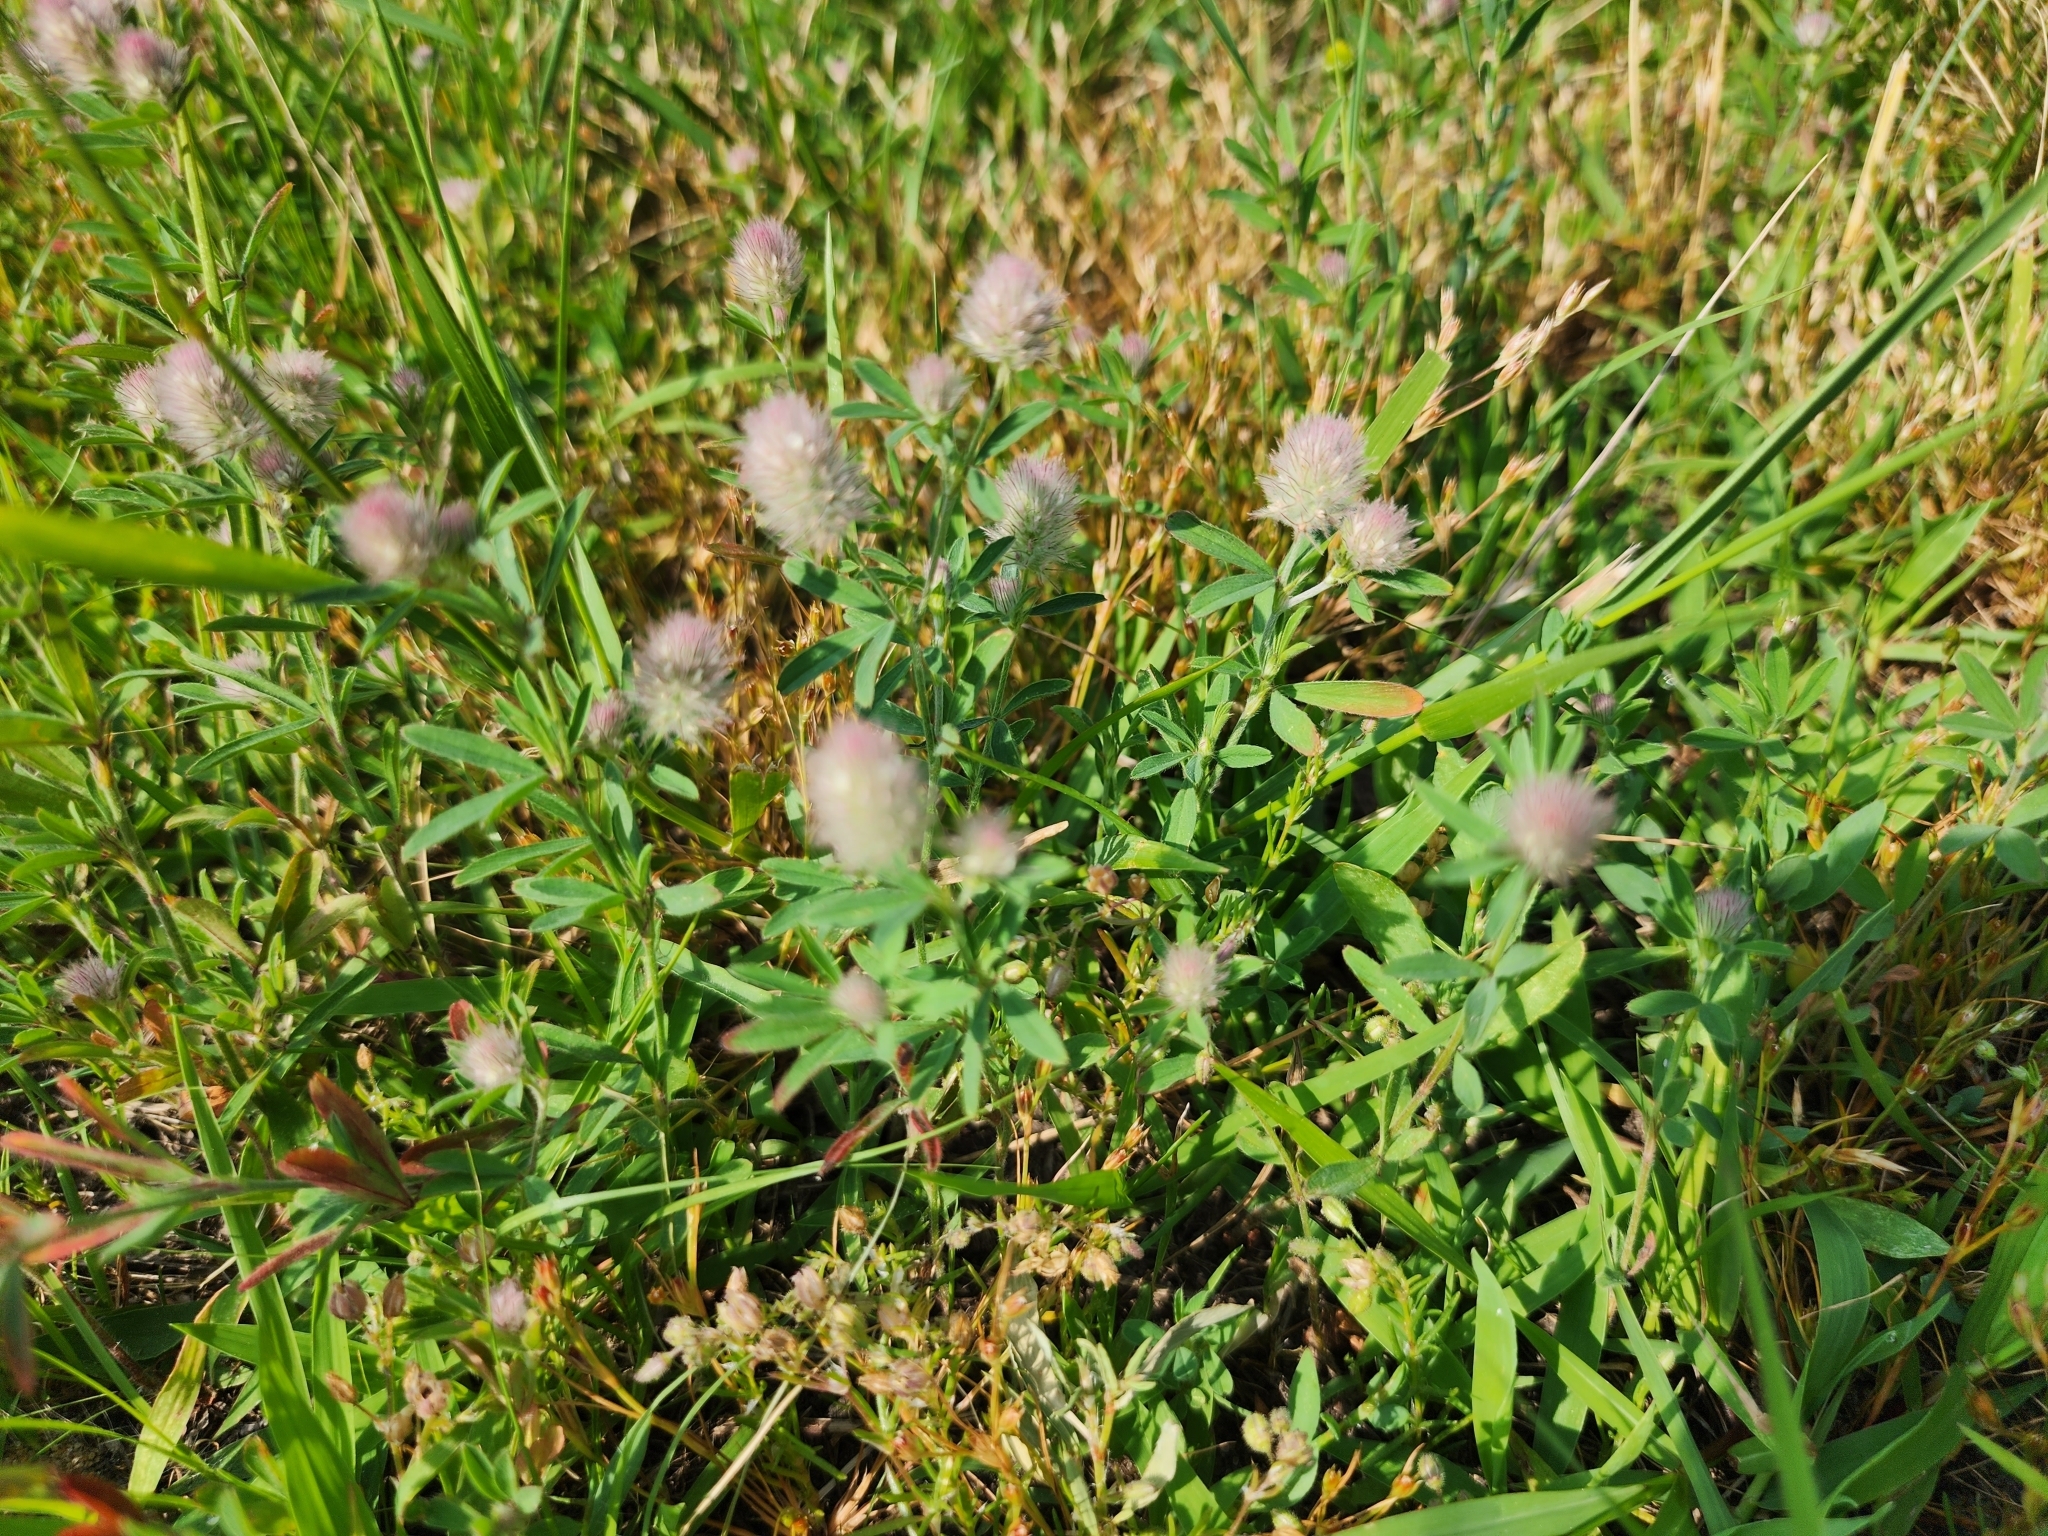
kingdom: Plantae
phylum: Tracheophyta
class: Magnoliopsida
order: Fabales
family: Fabaceae
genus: Trifolium
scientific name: Trifolium arvense
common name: Hare's-foot clover
